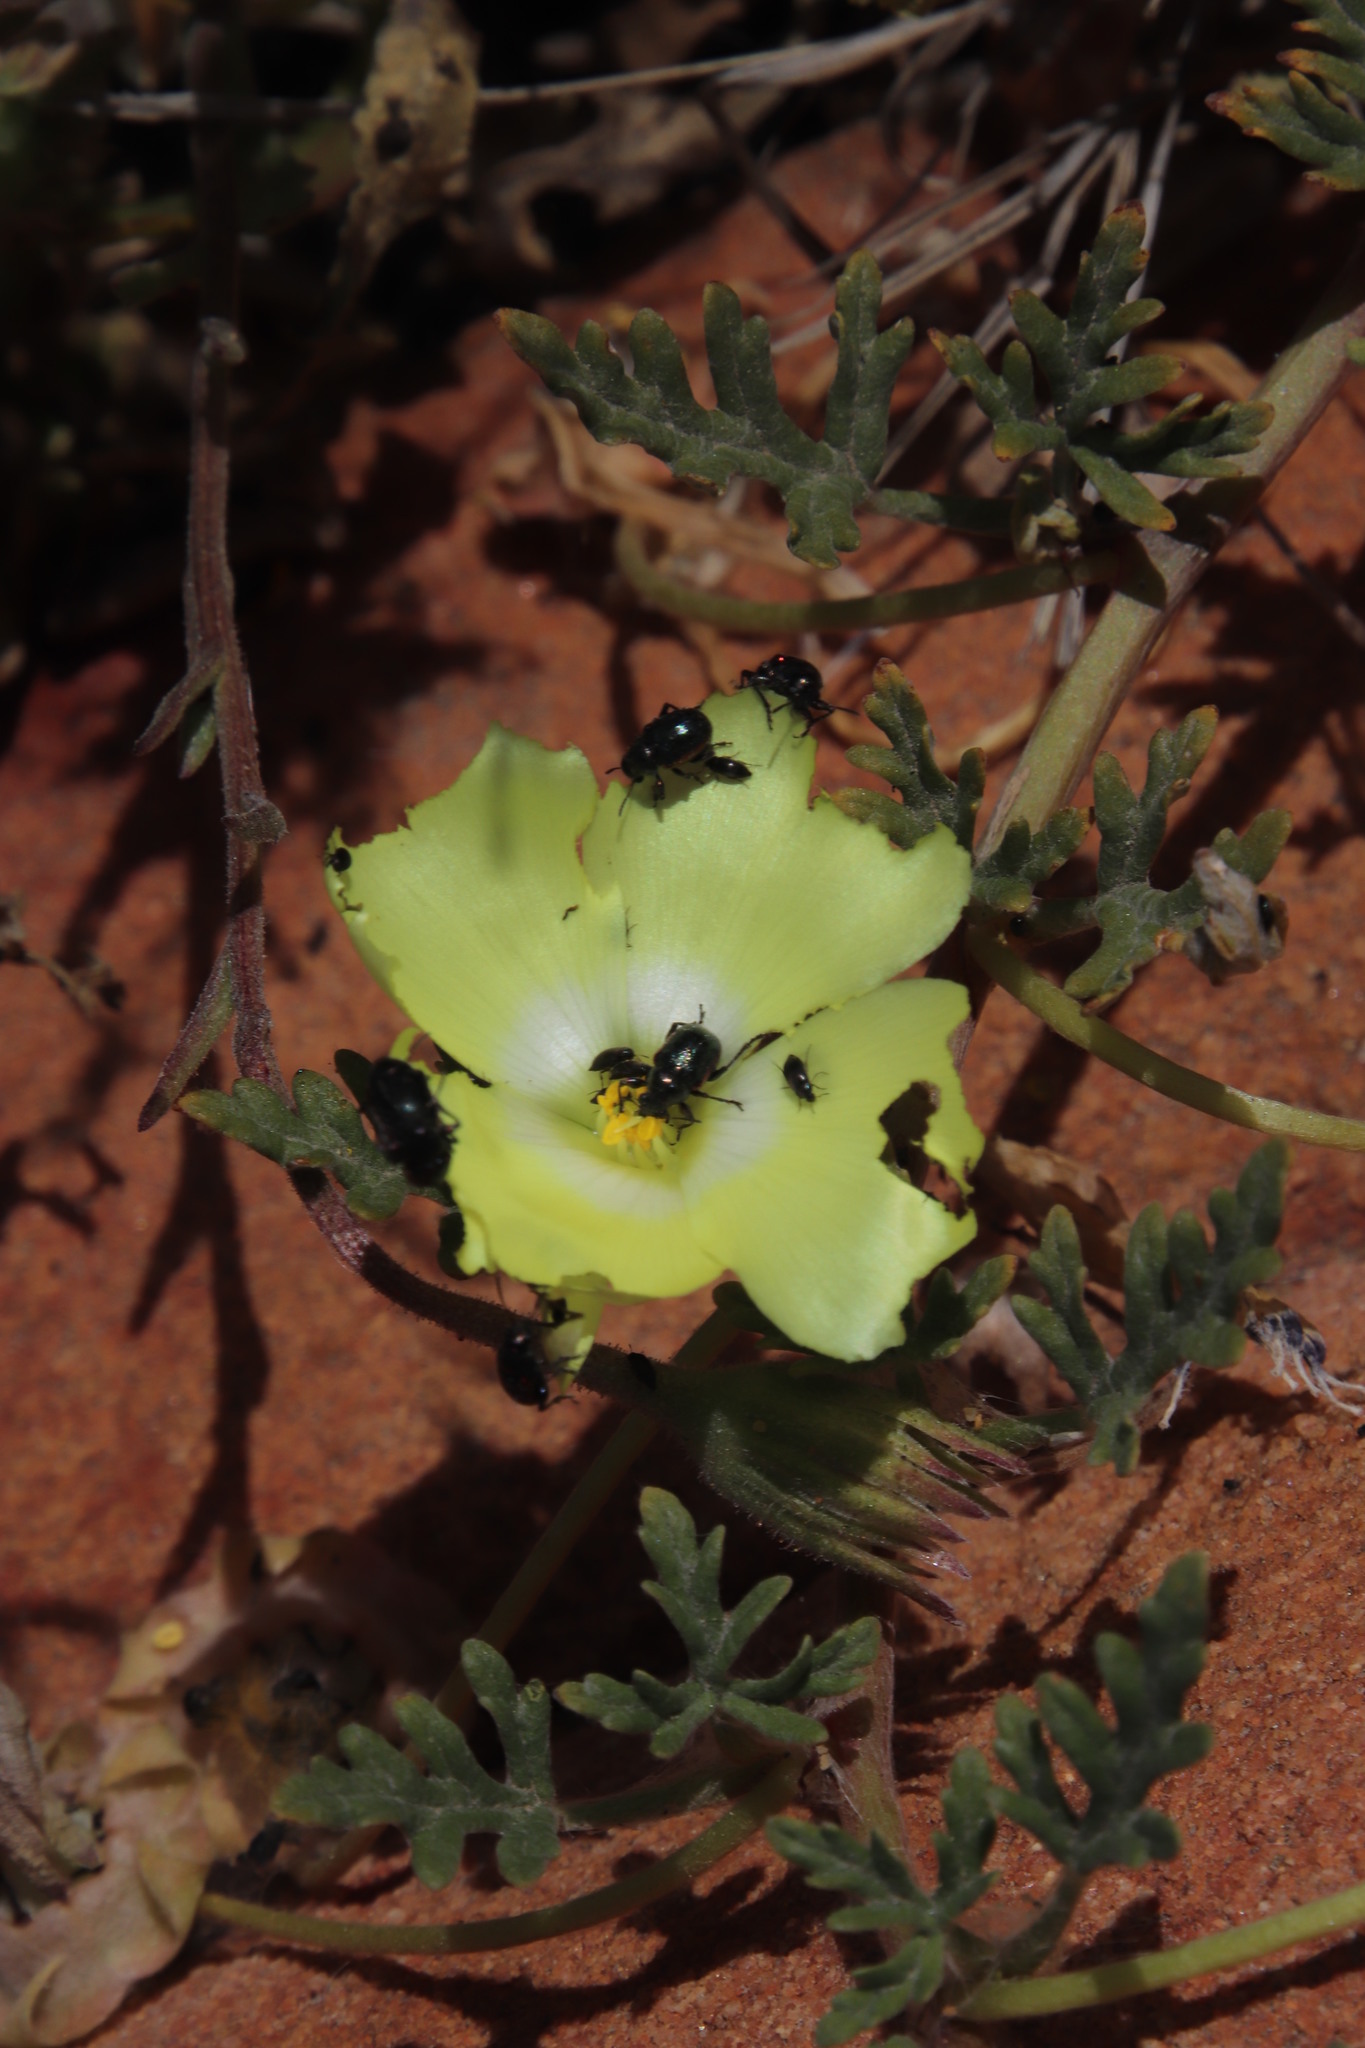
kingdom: Plantae
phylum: Tracheophyta
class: Magnoliopsida
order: Malvales
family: Neuradaceae
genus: Grielum
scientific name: Grielum humifusum
